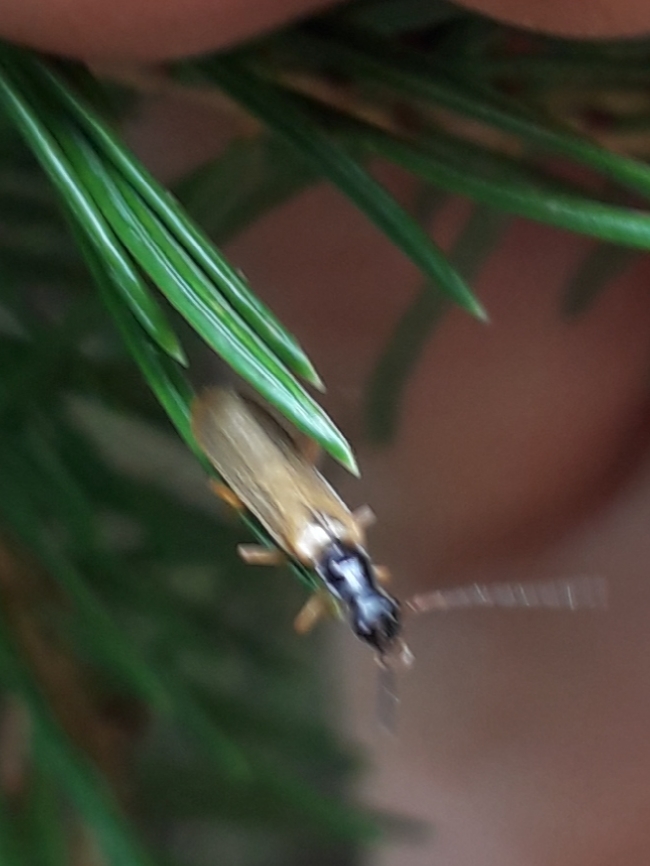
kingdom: Animalia
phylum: Arthropoda
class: Insecta
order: Coleoptera
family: Cantharidae
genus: Rhagonycha
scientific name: Rhagonycha lignosa
